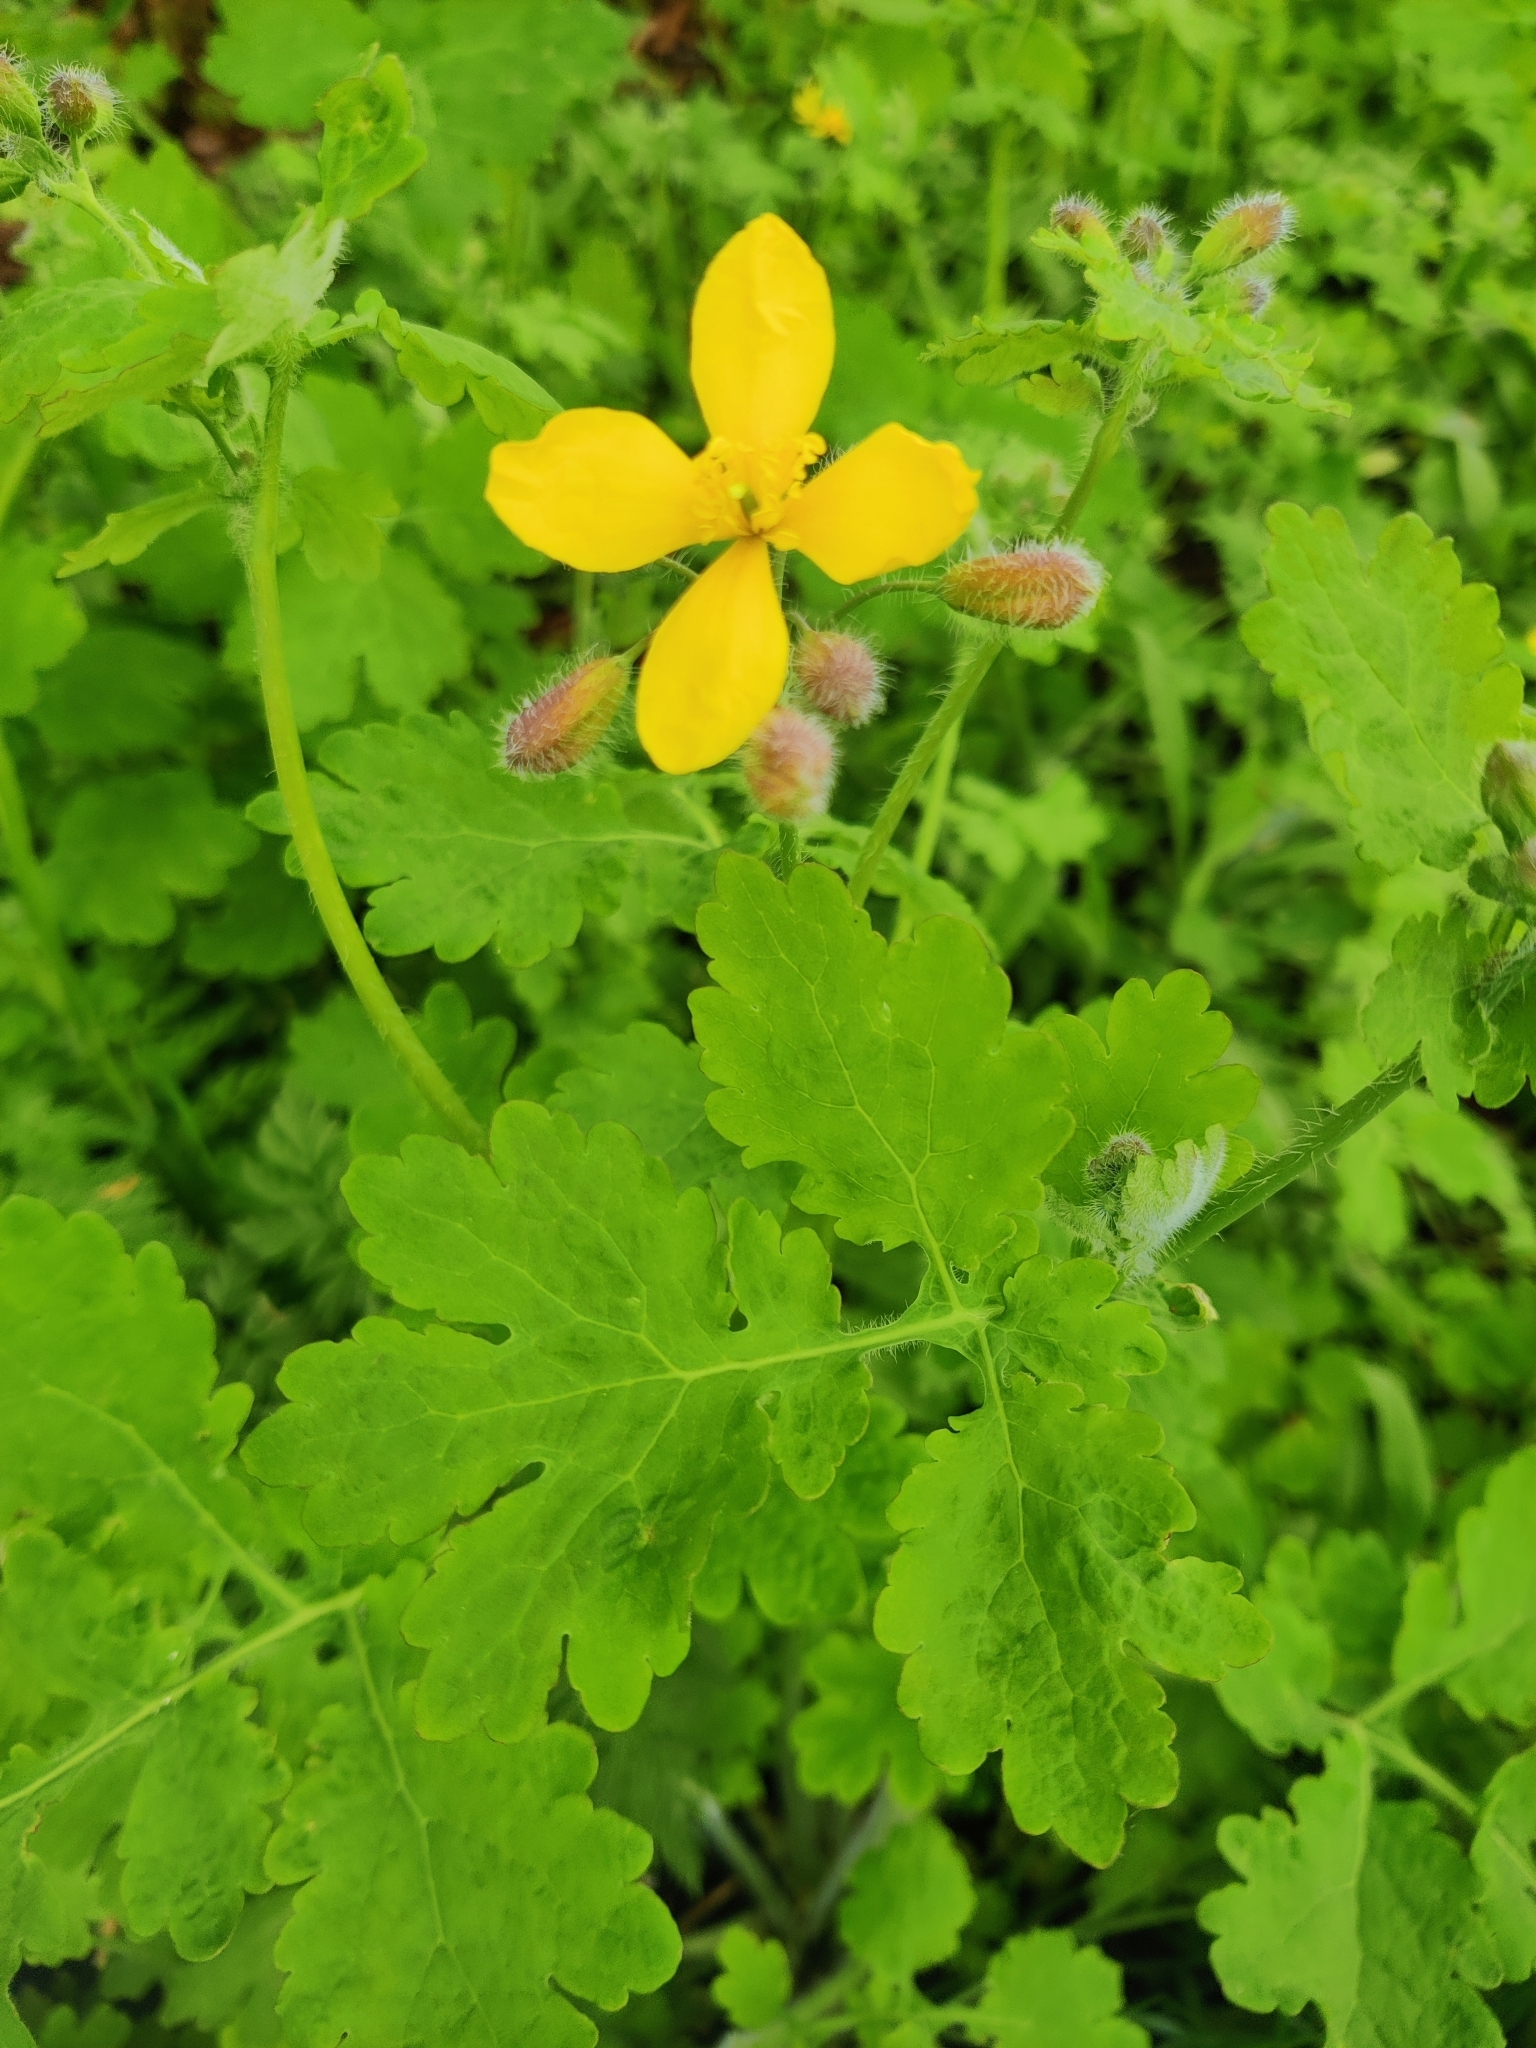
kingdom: Plantae
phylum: Tracheophyta
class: Magnoliopsida
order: Ranunculales
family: Papaveraceae
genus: Chelidonium
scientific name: Chelidonium majus
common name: Greater celandine
